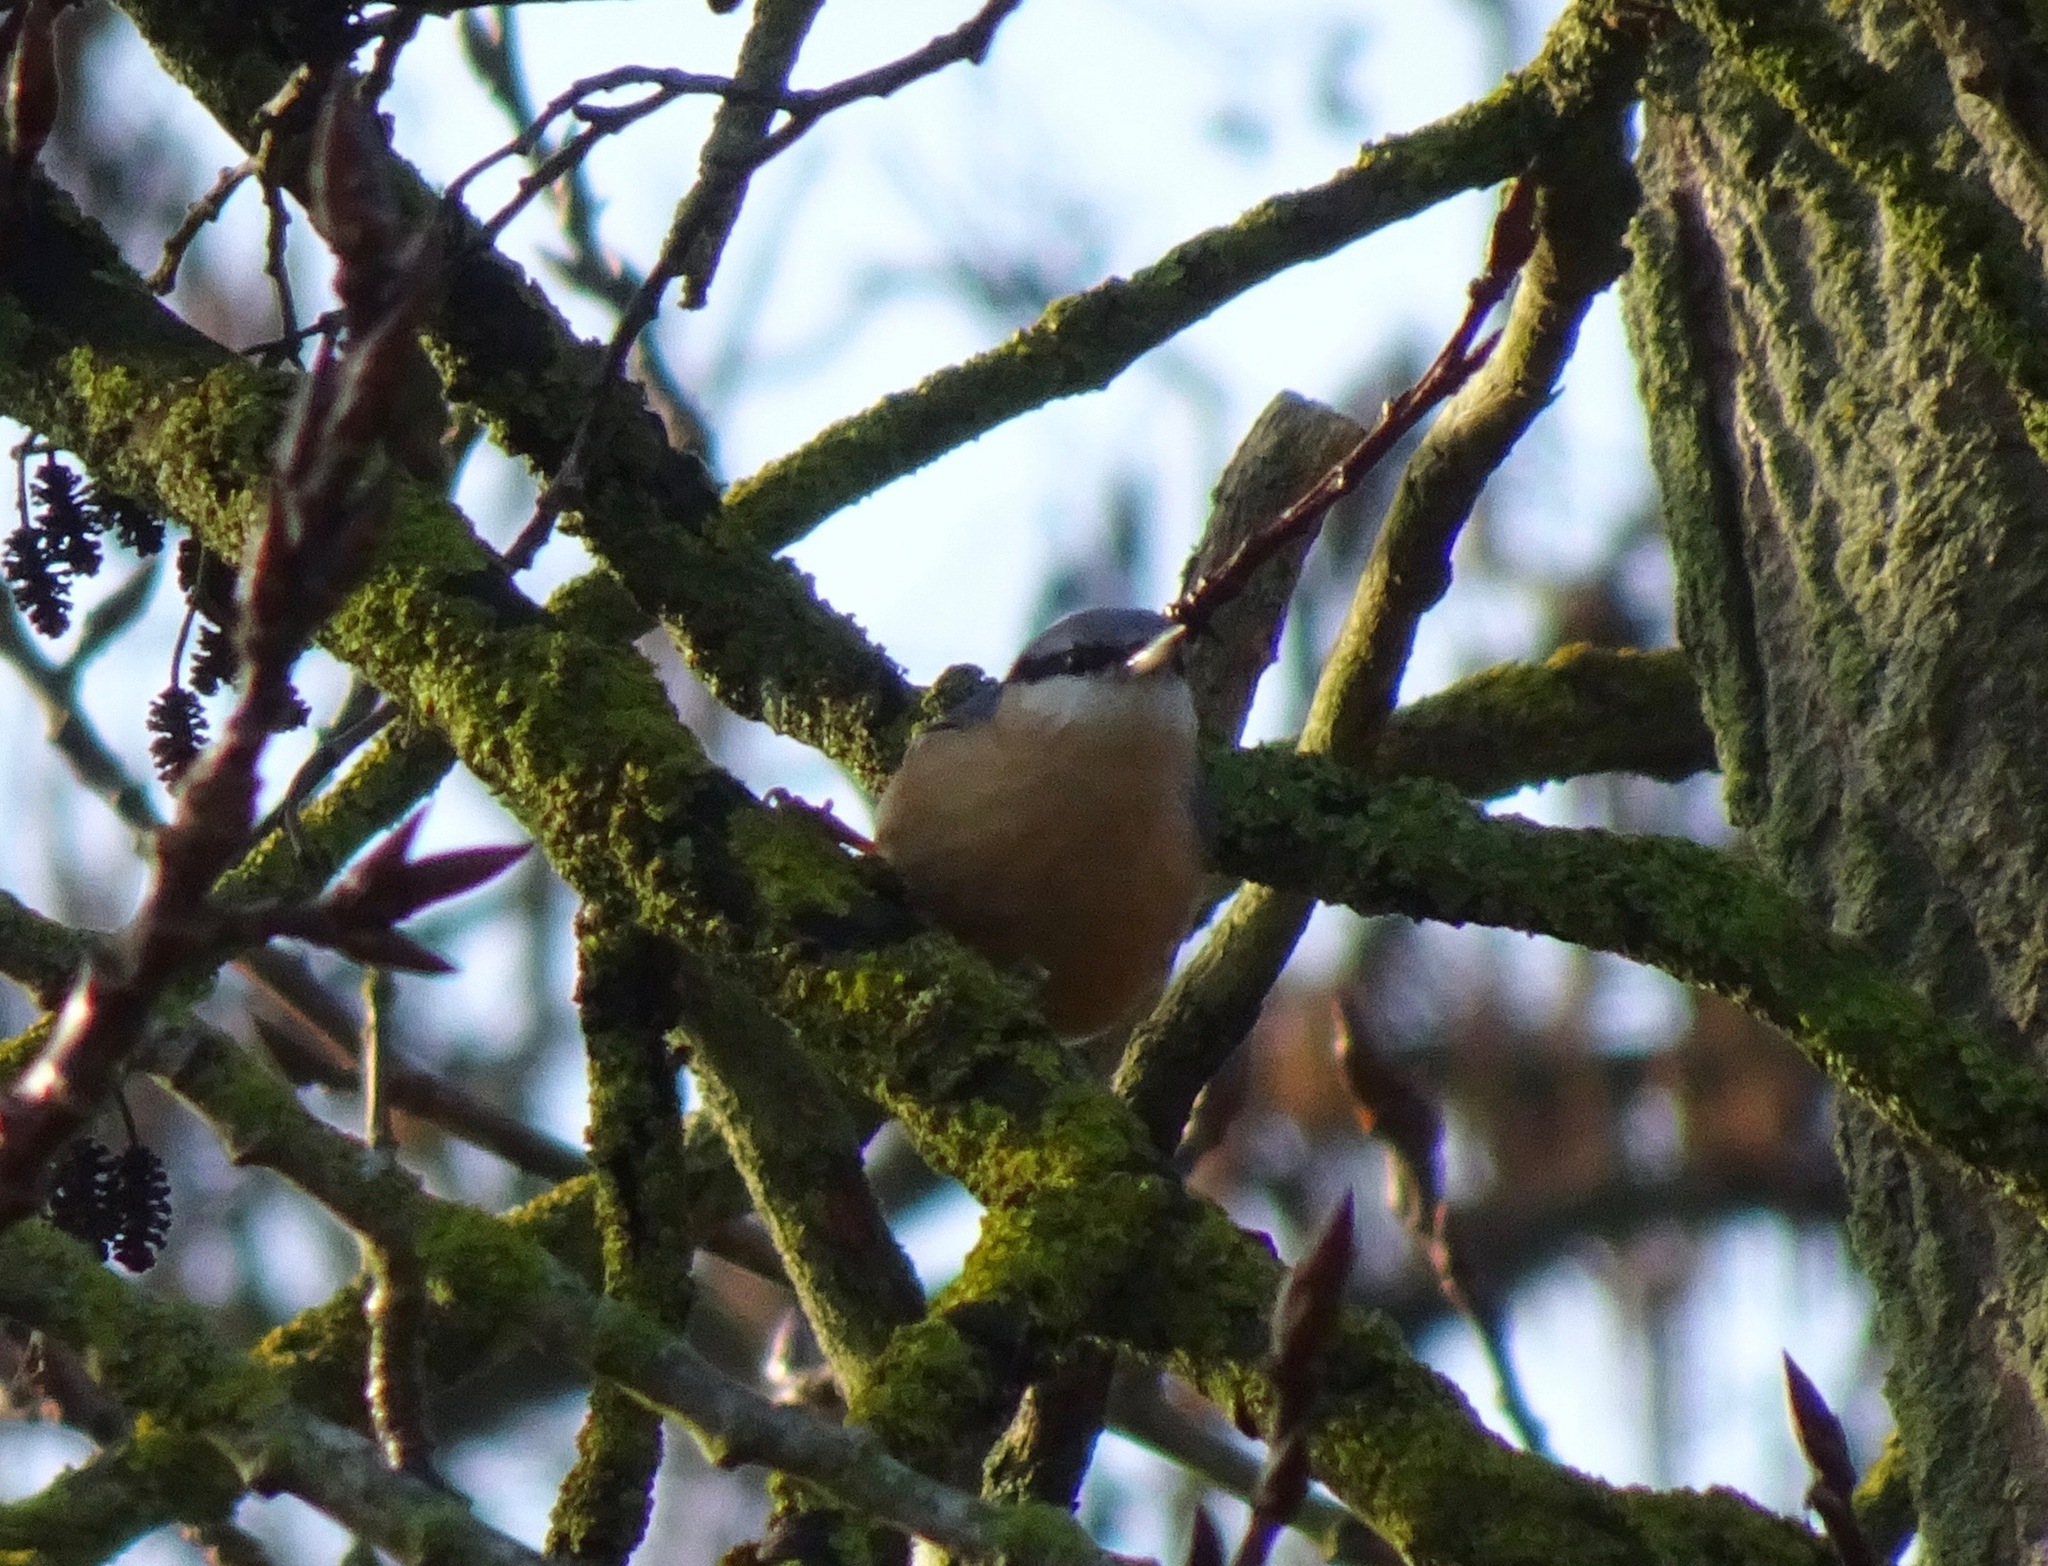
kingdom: Animalia
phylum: Chordata
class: Aves
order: Passeriformes
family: Sittidae
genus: Sitta
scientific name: Sitta europaea
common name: Eurasian nuthatch
